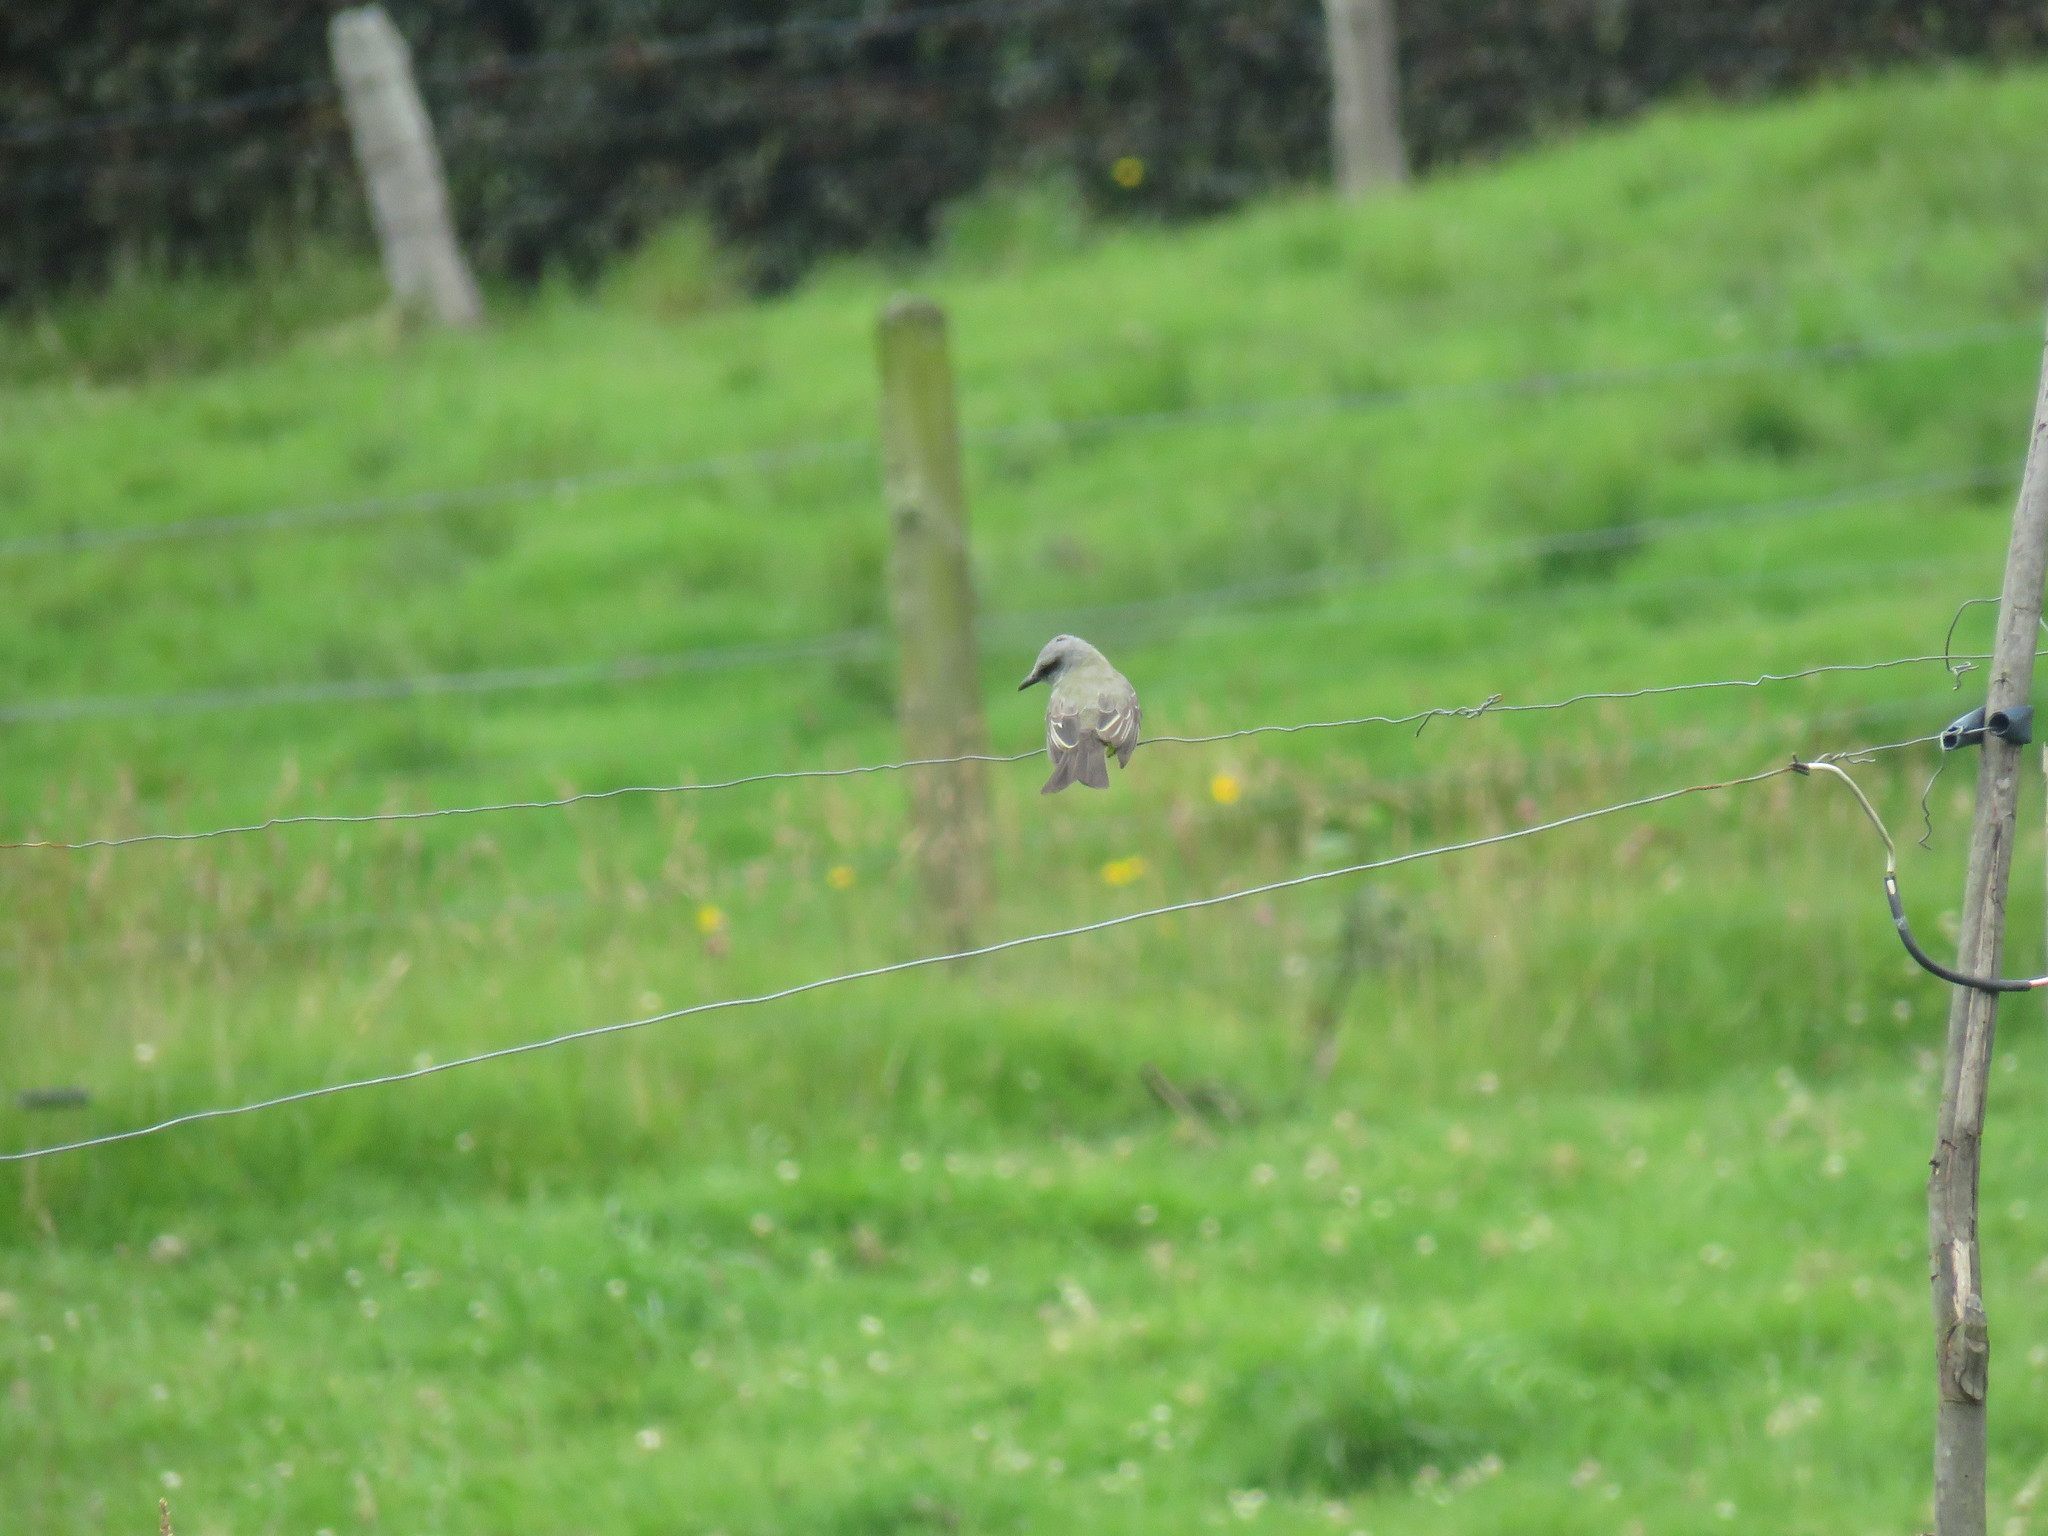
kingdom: Animalia
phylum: Chordata
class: Aves
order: Passeriformes
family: Tyrannidae
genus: Tyrannus
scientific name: Tyrannus melancholicus
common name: Tropical kingbird
